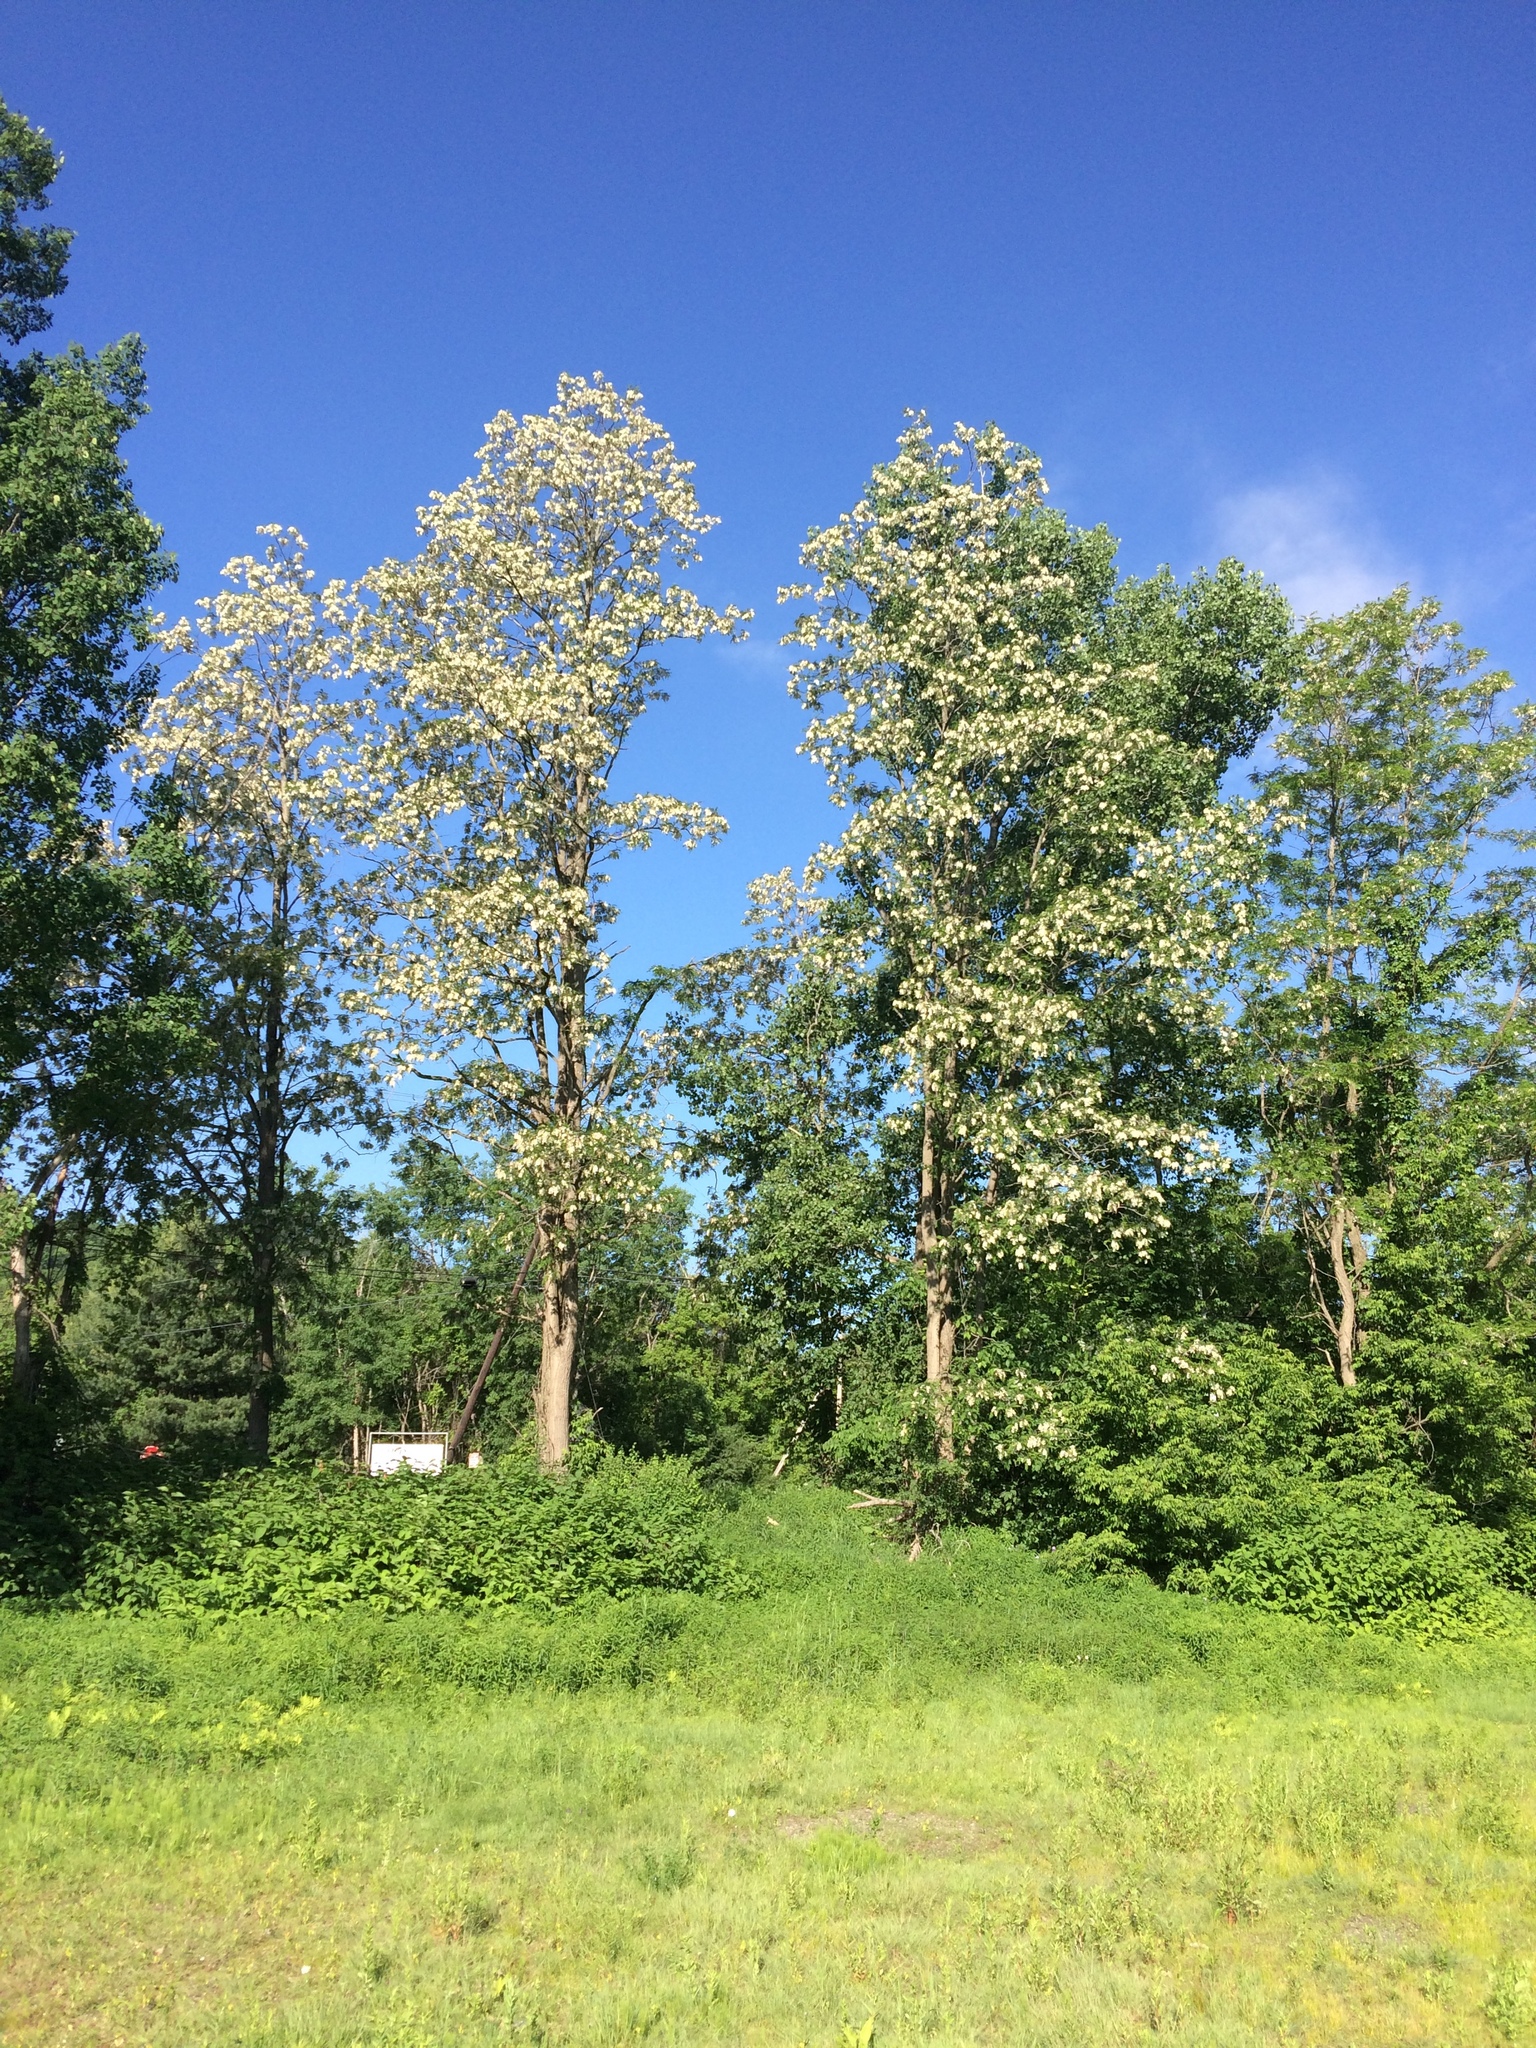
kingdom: Plantae
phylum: Tracheophyta
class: Magnoliopsida
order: Fabales
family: Fabaceae
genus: Robinia
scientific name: Robinia pseudoacacia
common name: Black locust
